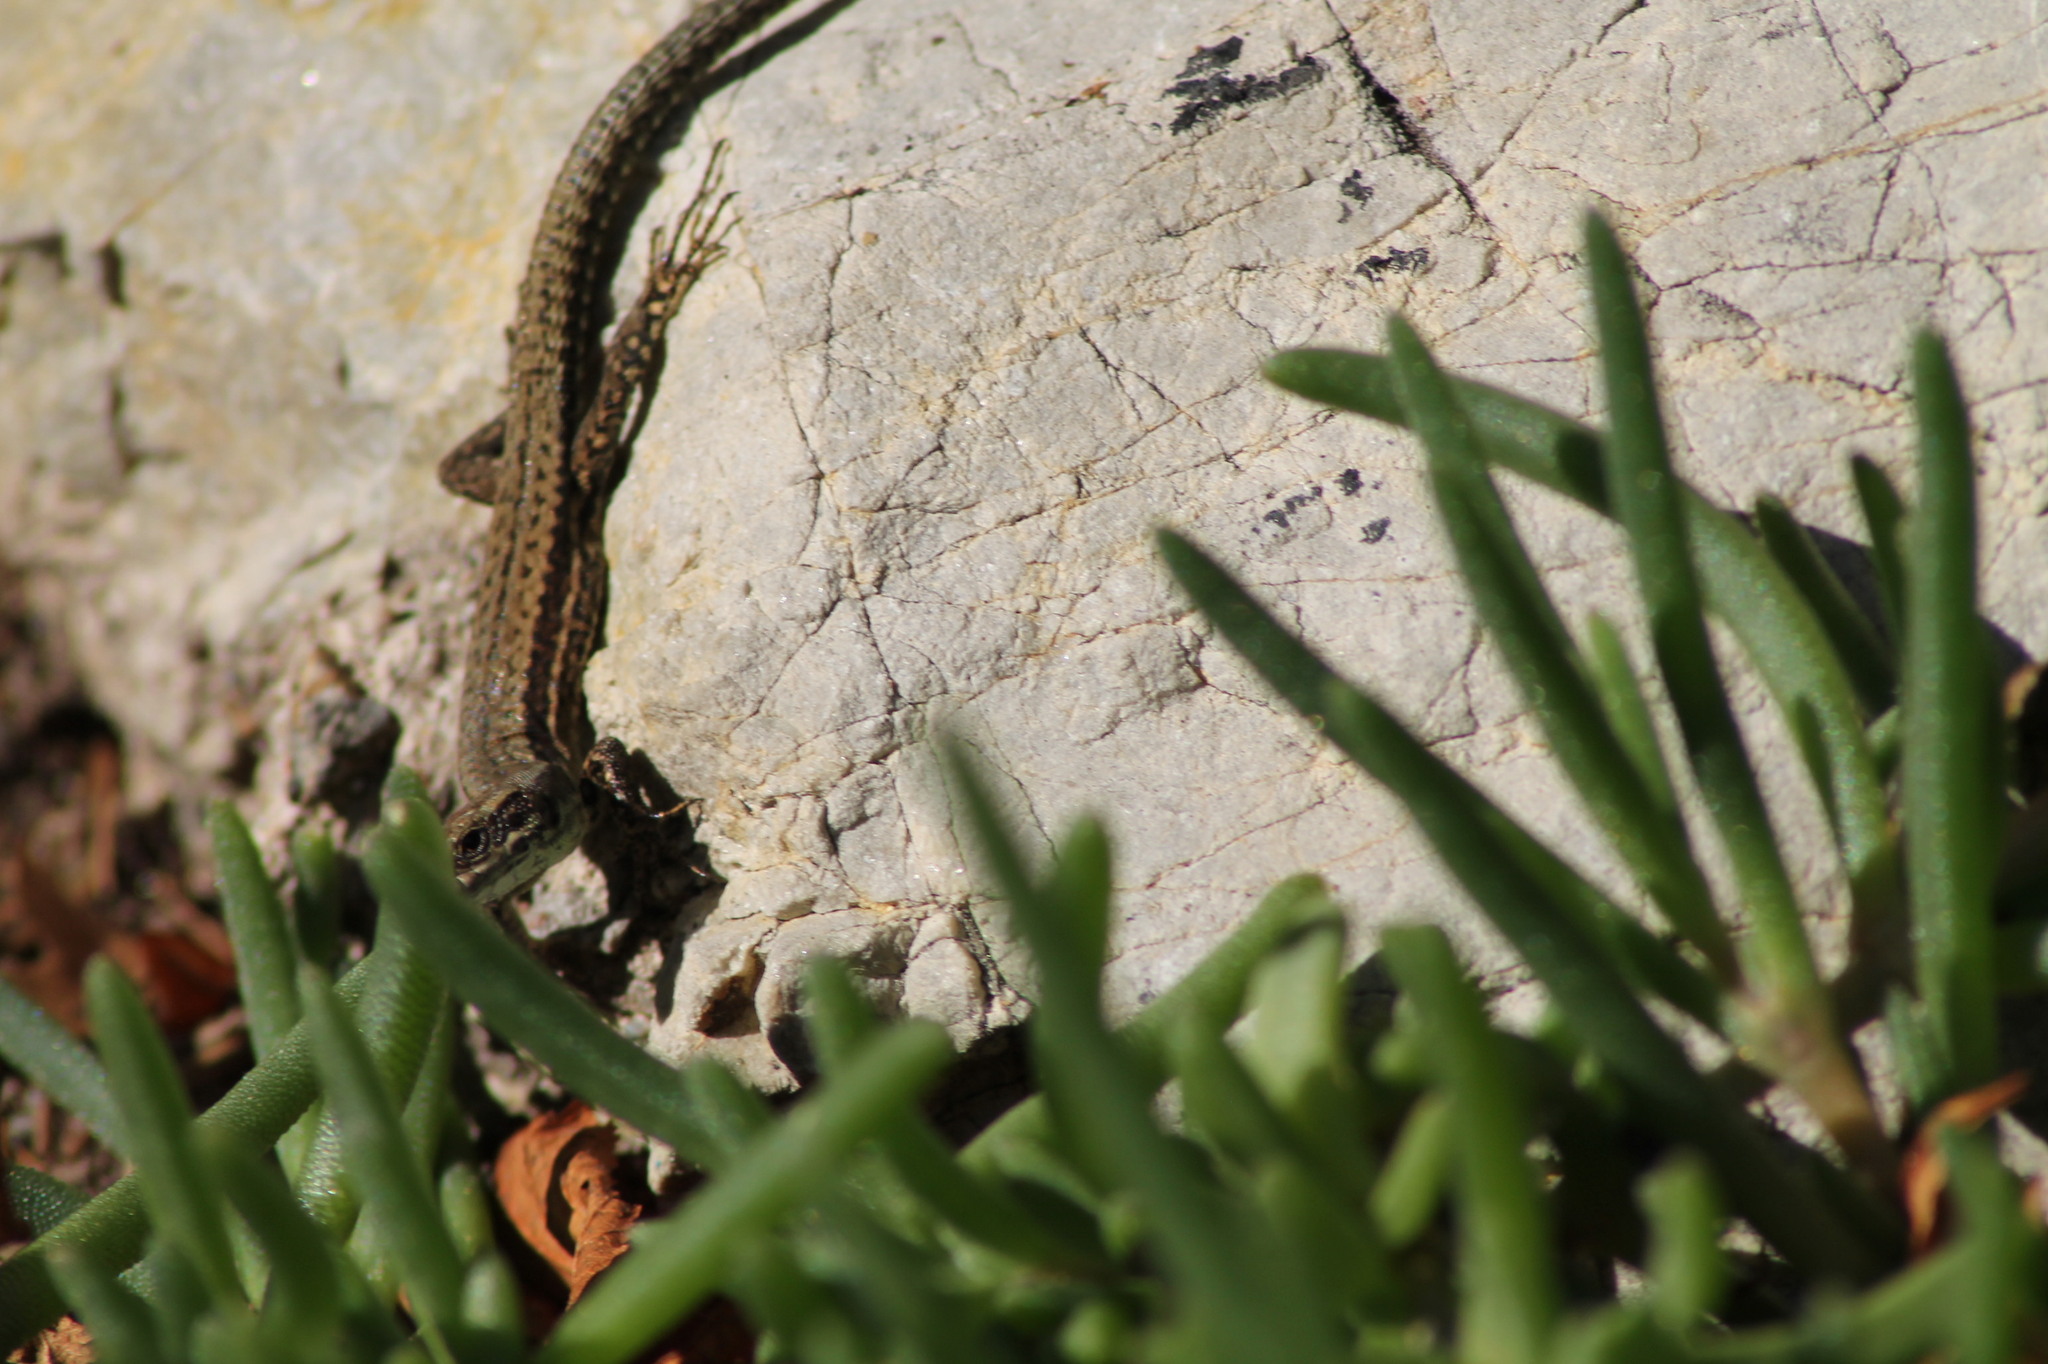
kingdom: Animalia
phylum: Chordata
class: Squamata
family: Lacertidae
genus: Podarcis
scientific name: Podarcis muralis
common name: Common wall lizard
